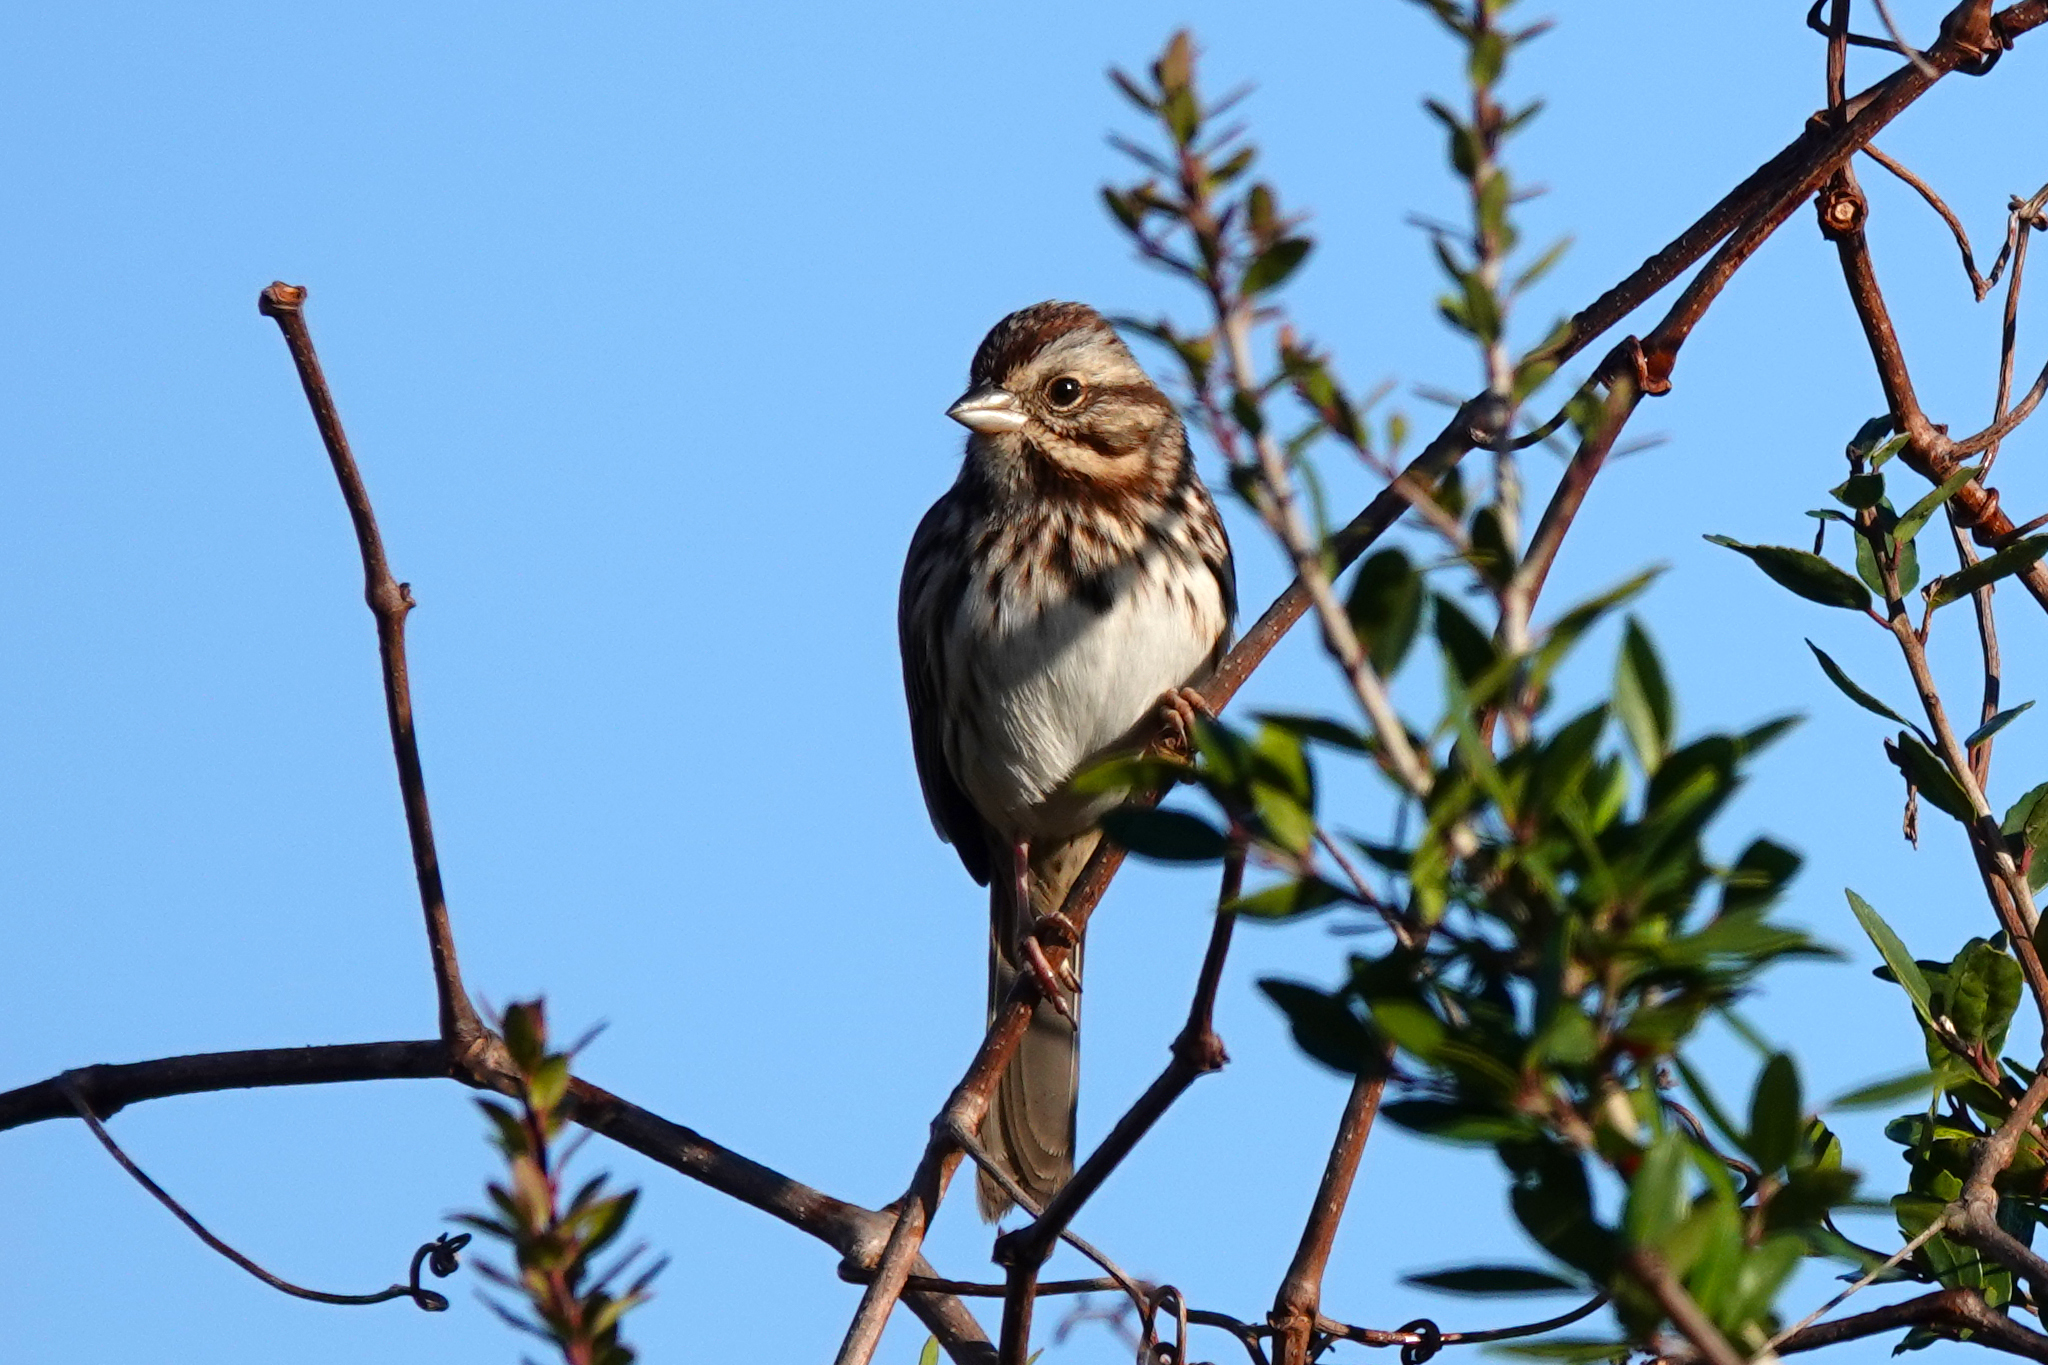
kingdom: Animalia
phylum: Chordata
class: Aves
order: Passeriformes
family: Passerellidae
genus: Melospiza
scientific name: Melospiza melodia
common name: Song sparrow
